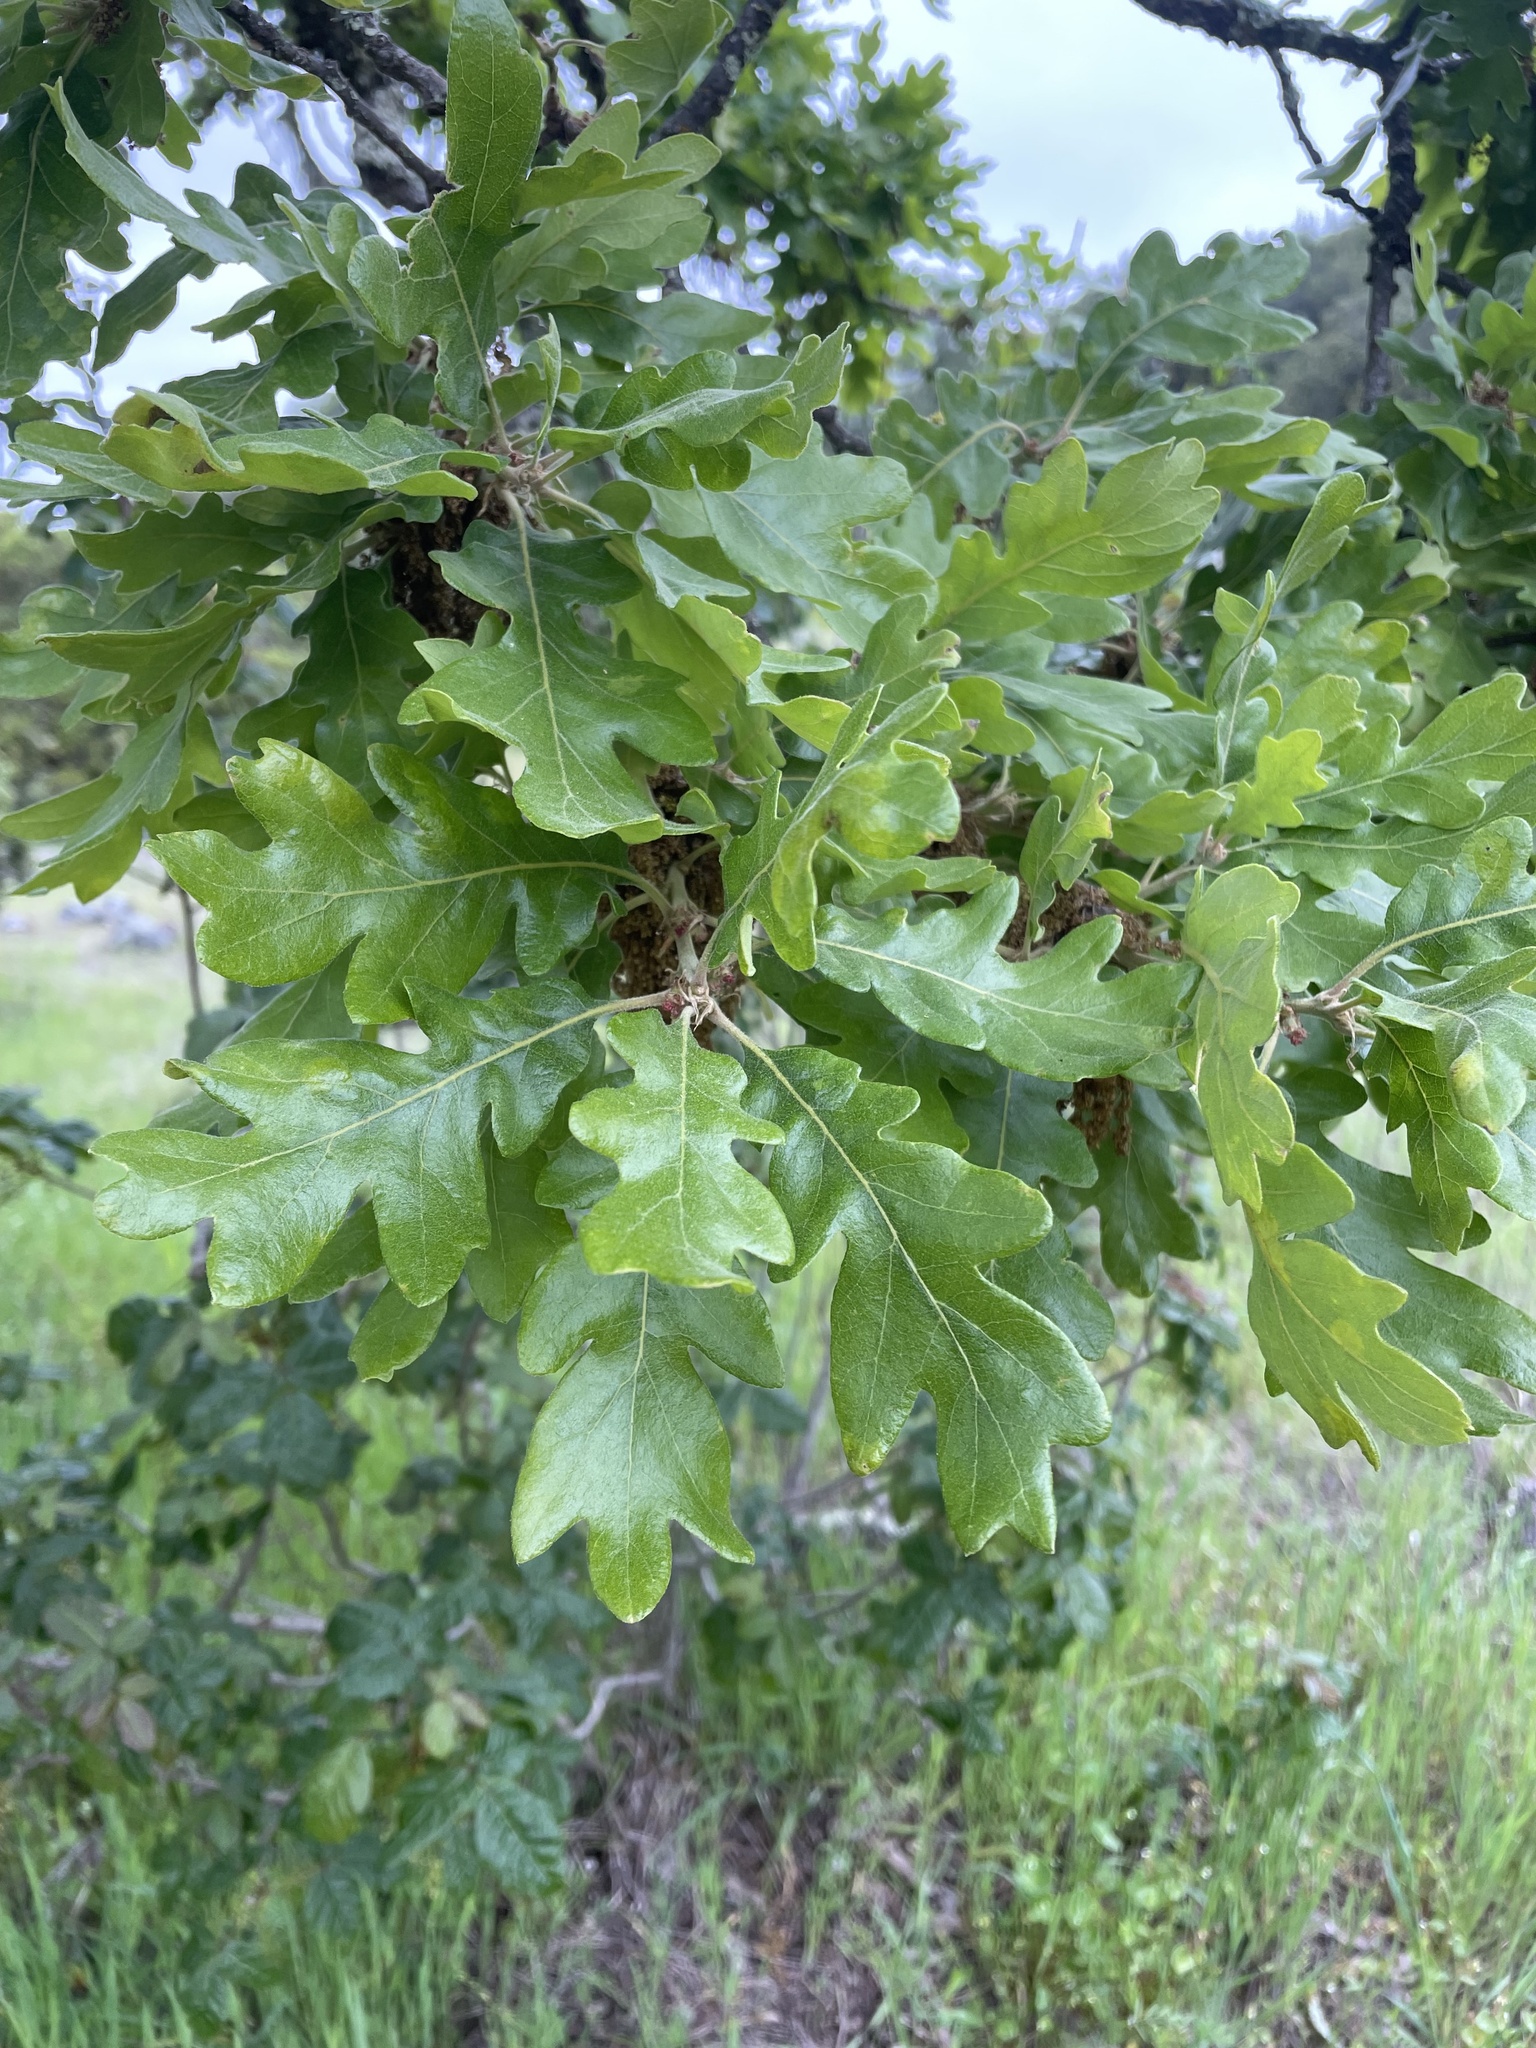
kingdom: Plantae
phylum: Tracheophyta
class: Magnoliopsida
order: Fagales
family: Fagaceae
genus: Quercus
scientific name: Quercus garryana
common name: Garry oak
